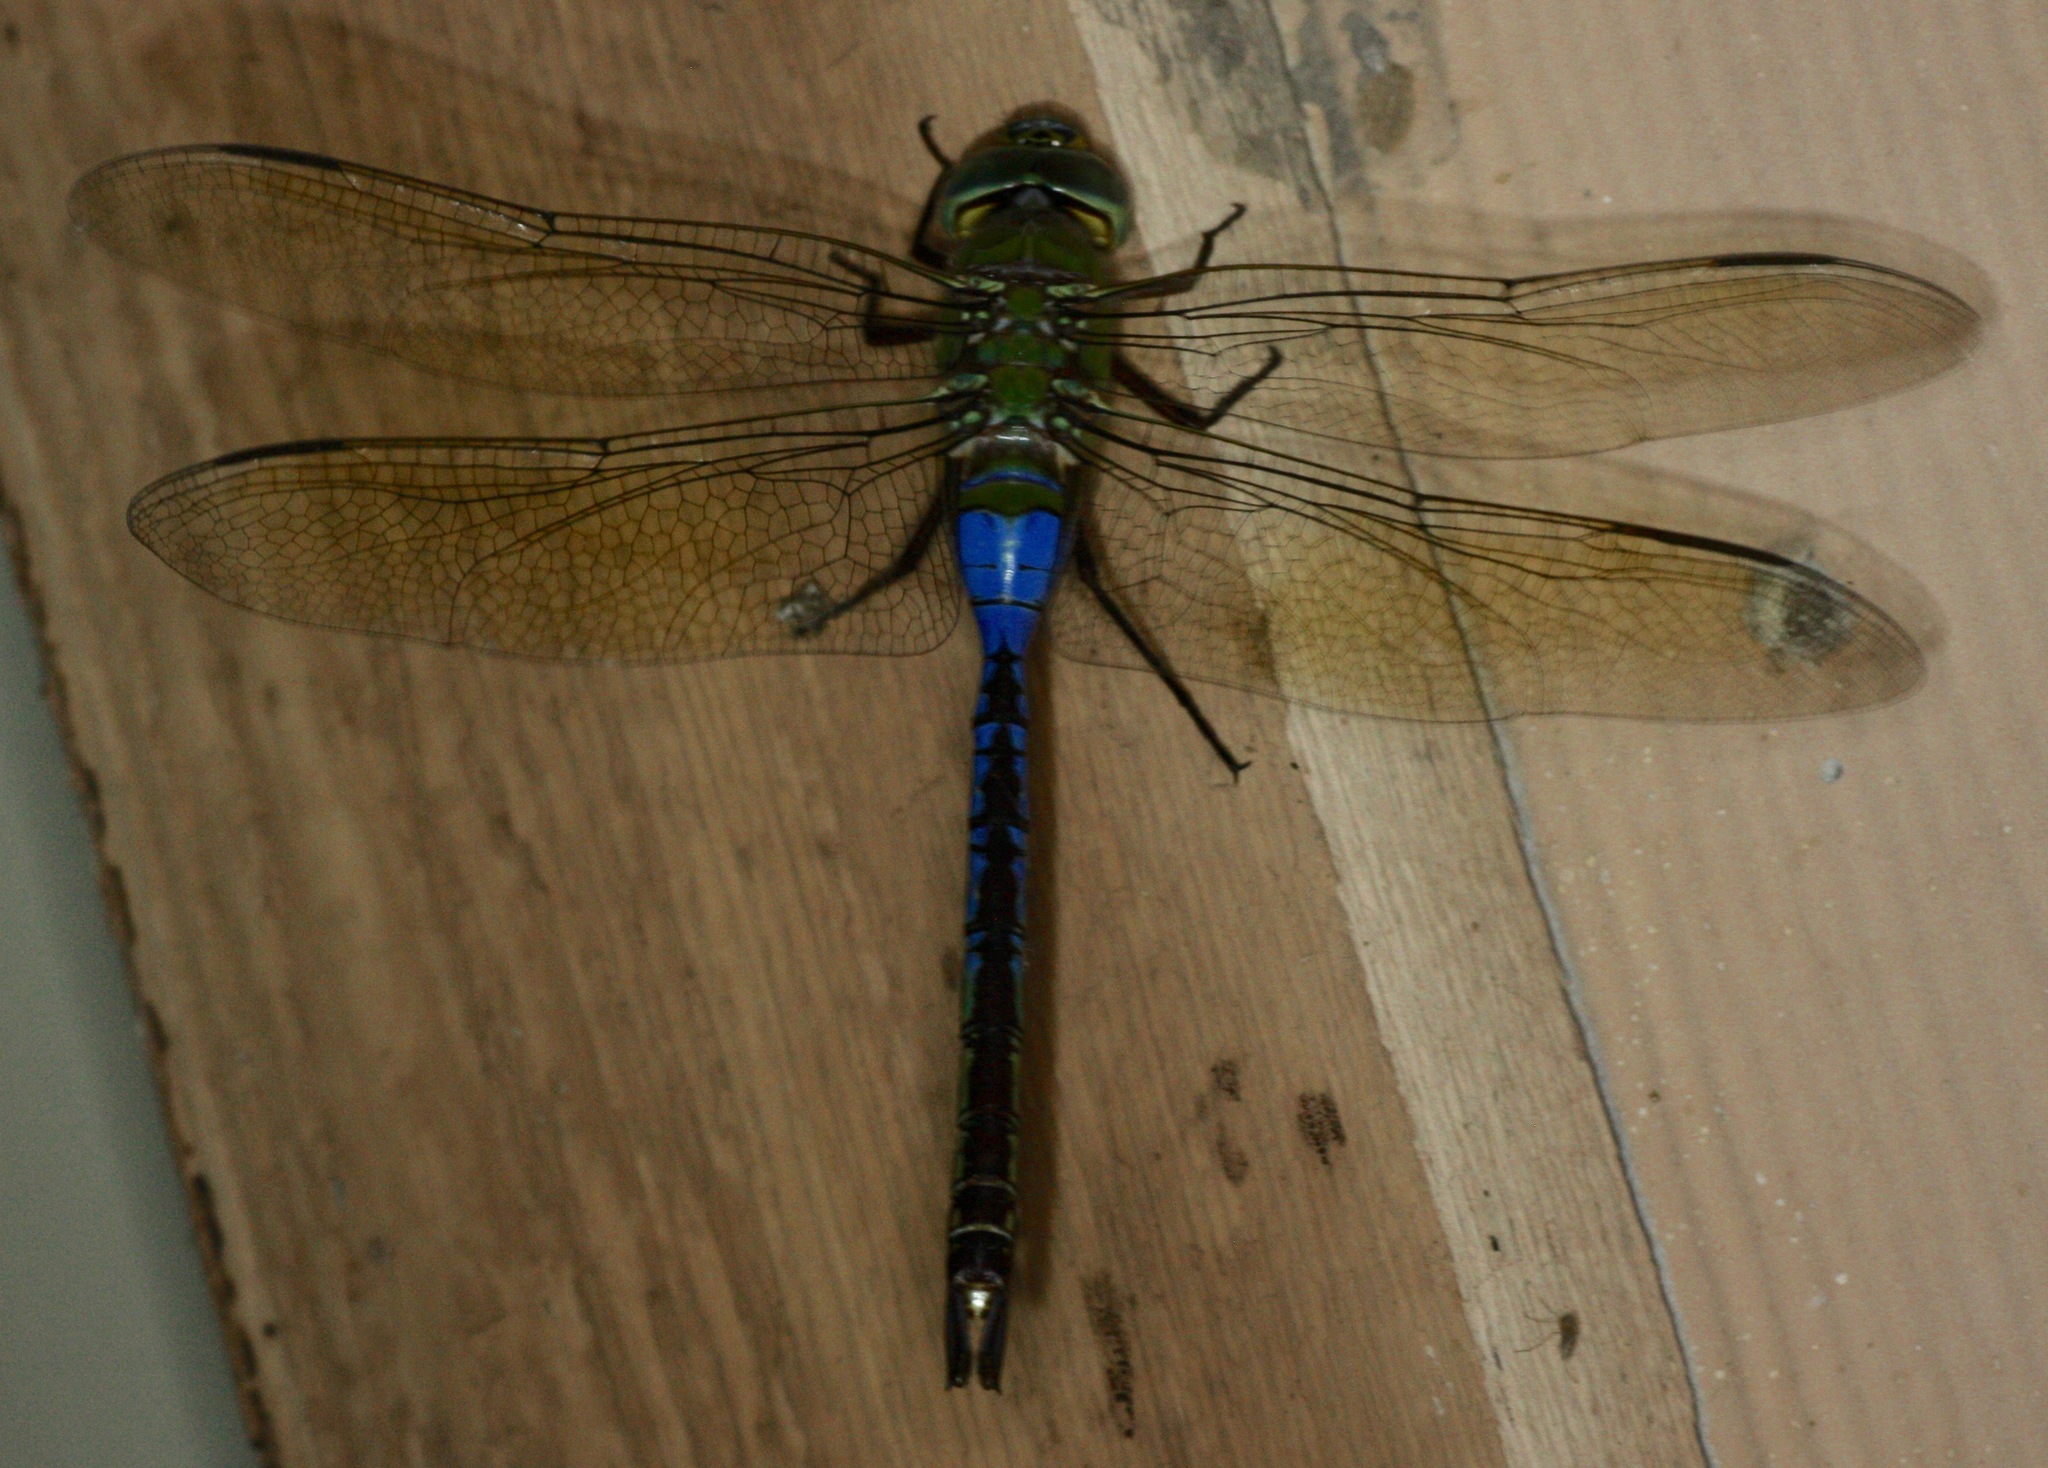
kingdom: Animalia
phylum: Arthropoda
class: Insecta
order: Odonata
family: Aeshnidae
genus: Anax
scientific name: Anax junius
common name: Common green darner
